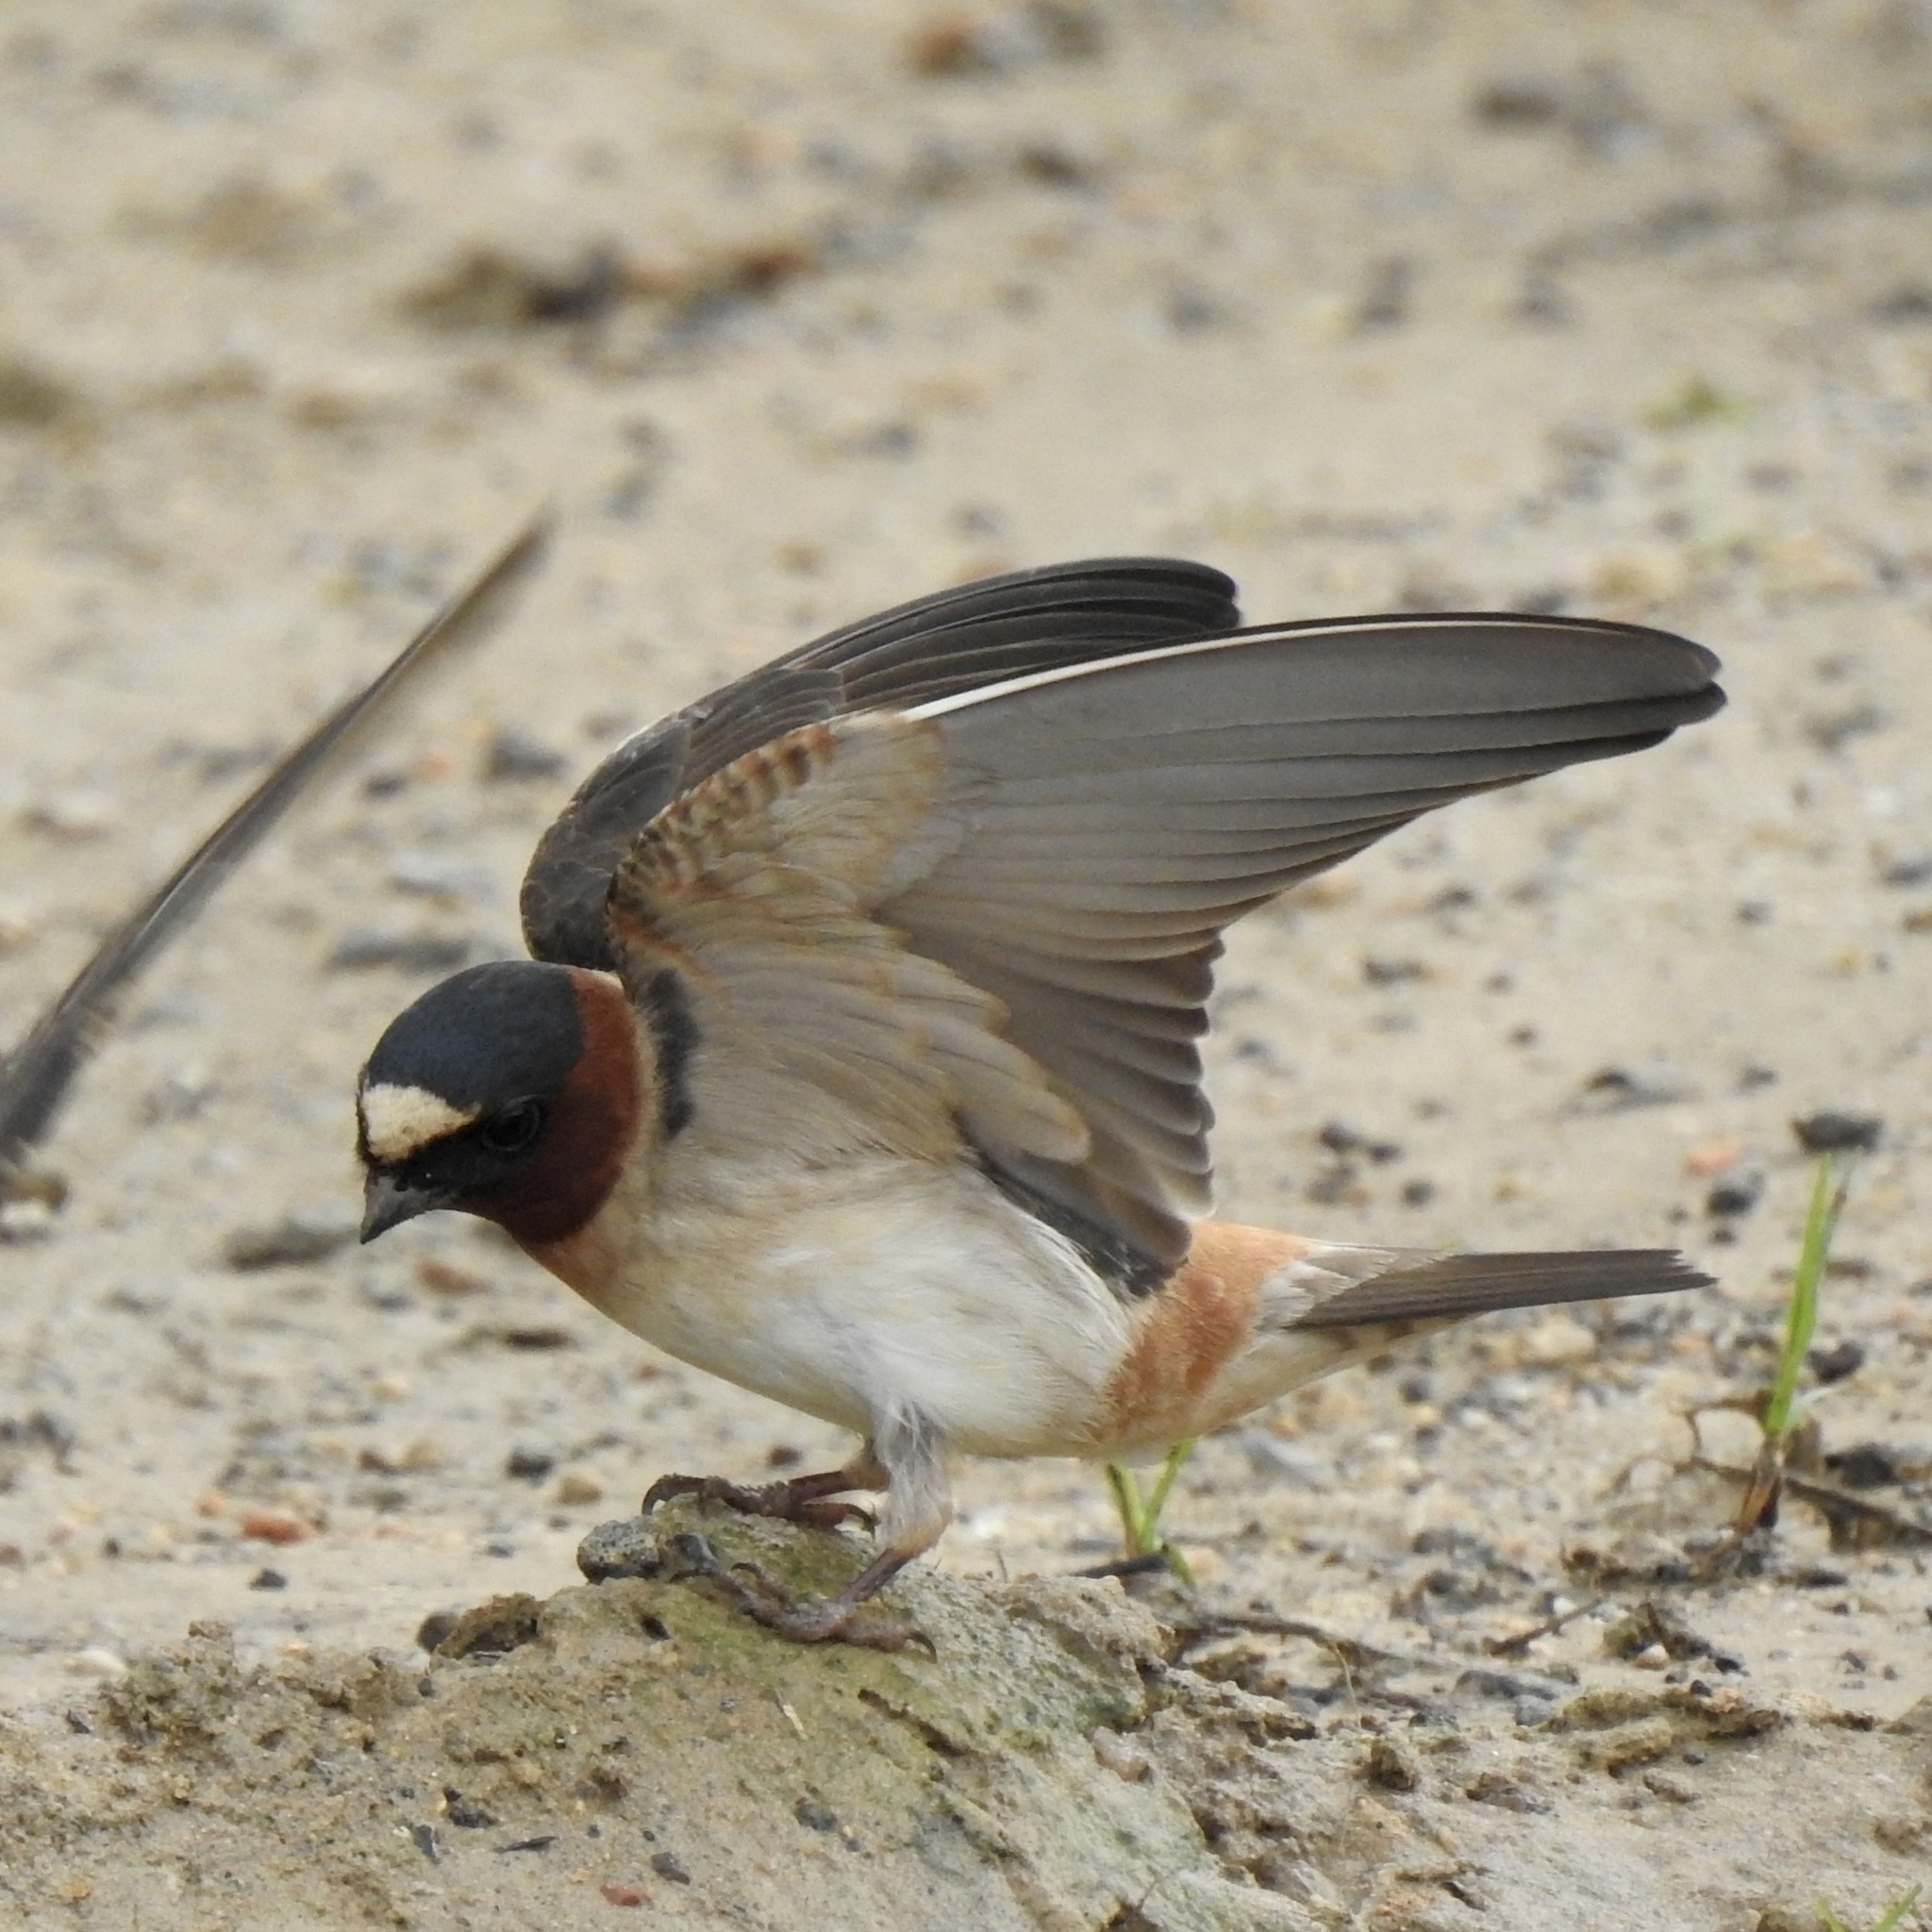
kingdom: Animalia
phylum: Chordata
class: Aves
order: Passeriformes
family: Hirundinidae
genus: Petrochelidon
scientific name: Petrochelidon pyrrhonota
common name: American cliff swallow
